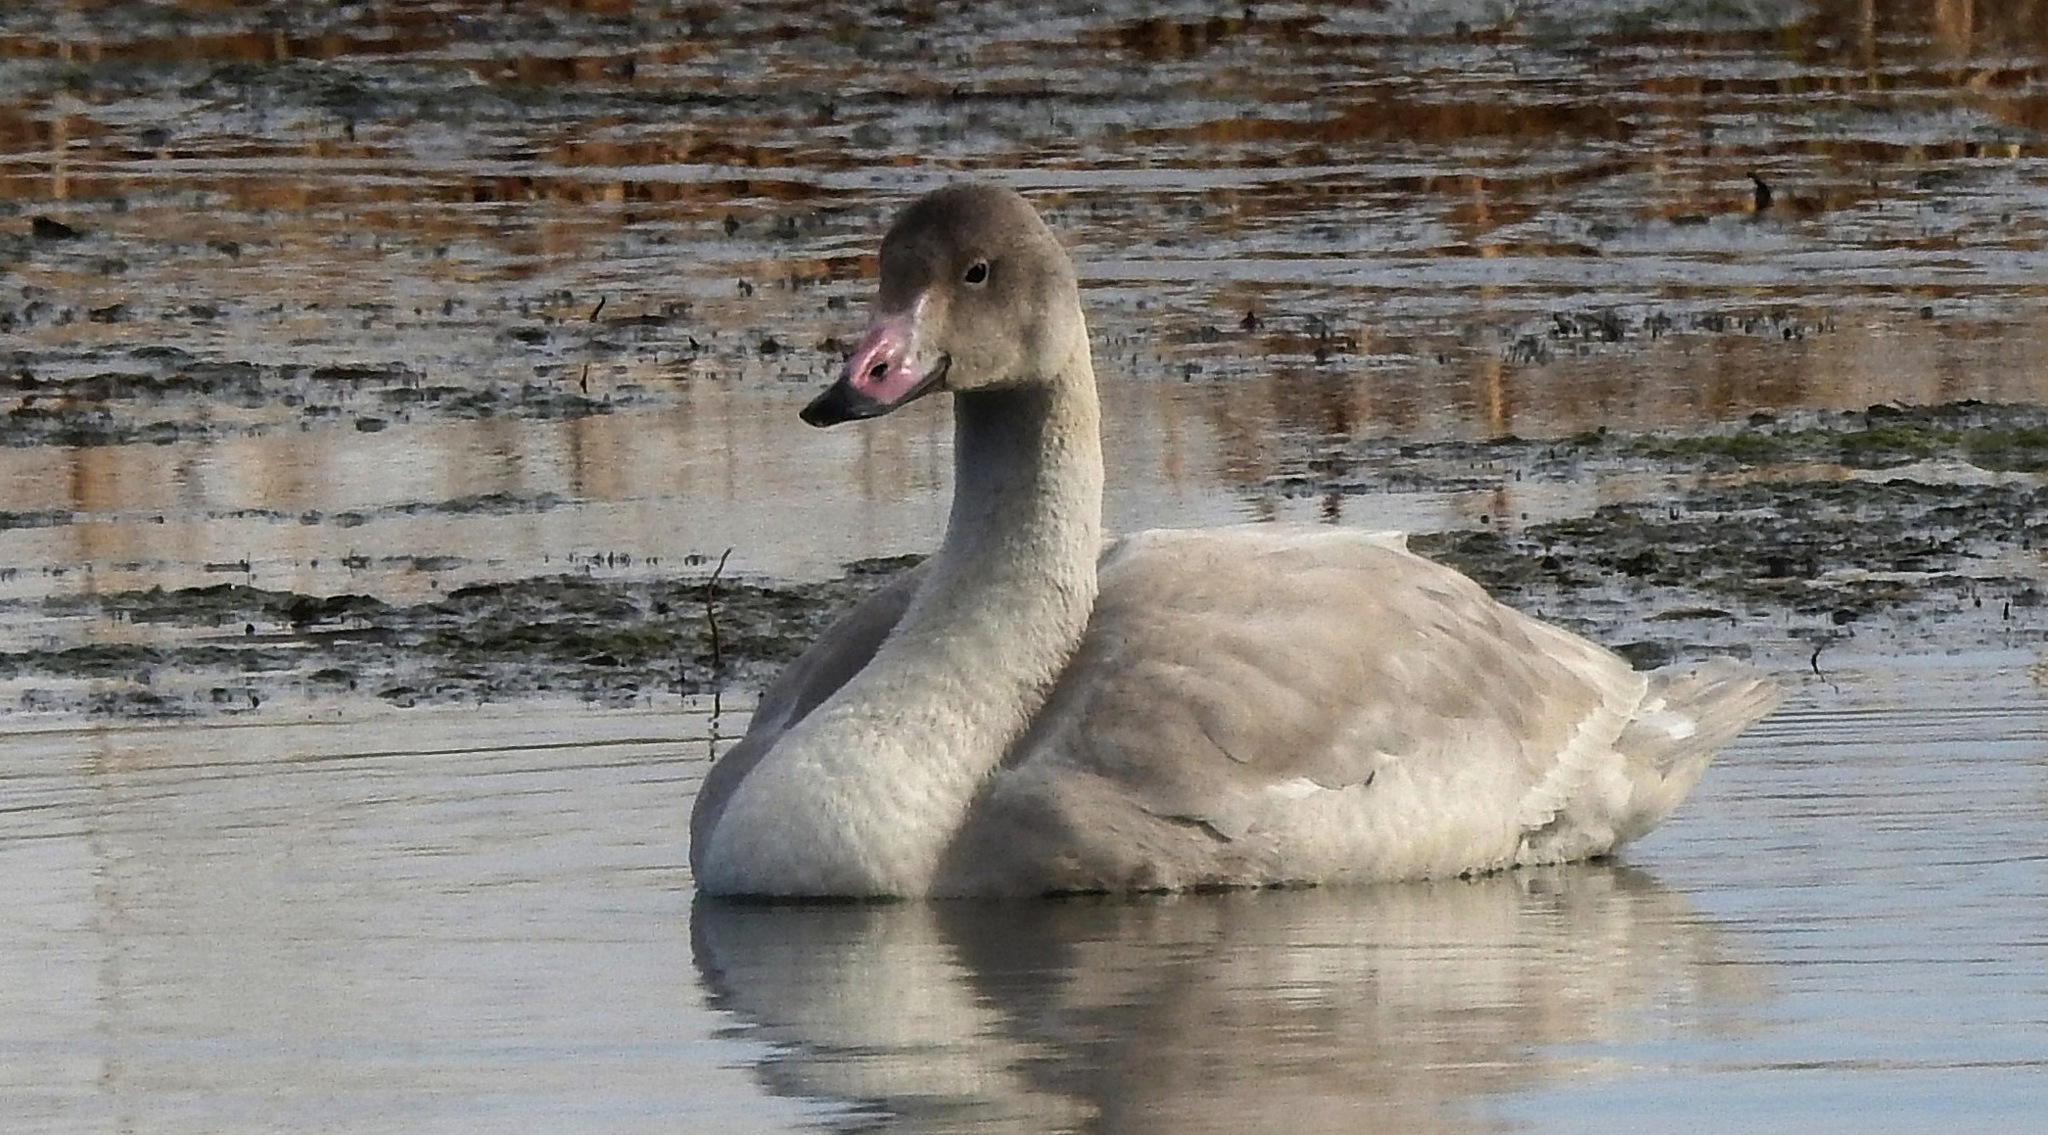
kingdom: Animalia
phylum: Chordata
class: Aves
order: Anseriformes
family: Anatidae
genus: Cygnus
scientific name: Cygnus columbianus
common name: Tundra swan
